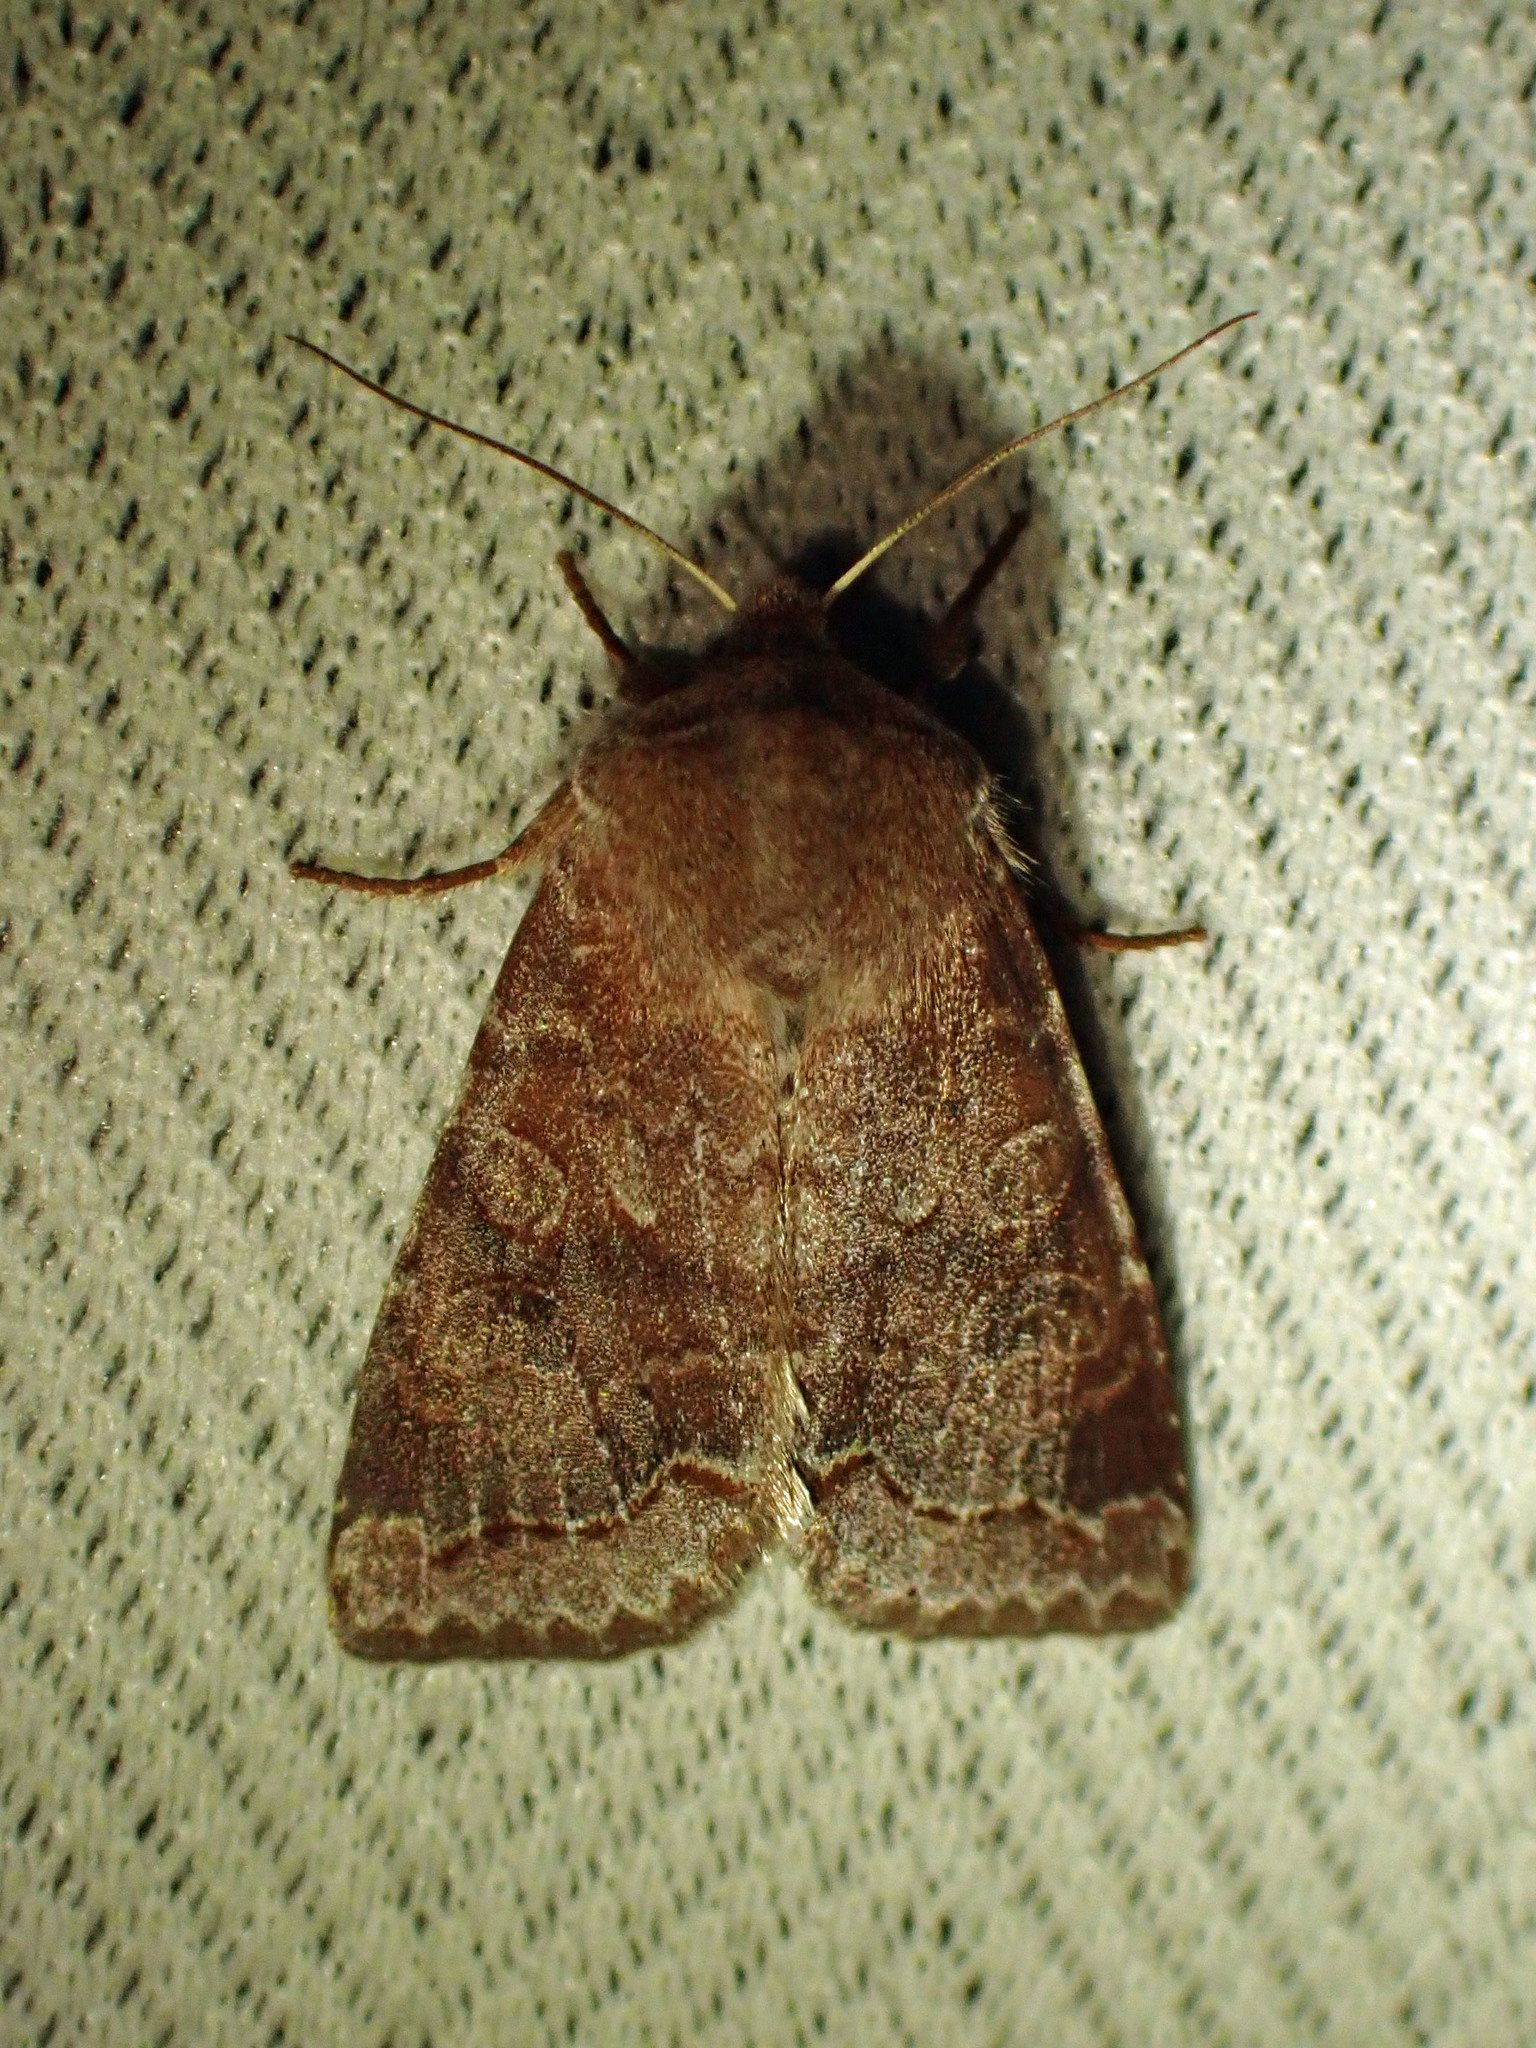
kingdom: Animalia
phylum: Arthropoda
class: Insecta
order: Lepidoptera
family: Noctuidae
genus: Orthosia
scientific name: Orthosia revicta
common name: Rusty whitesided caterpillar
